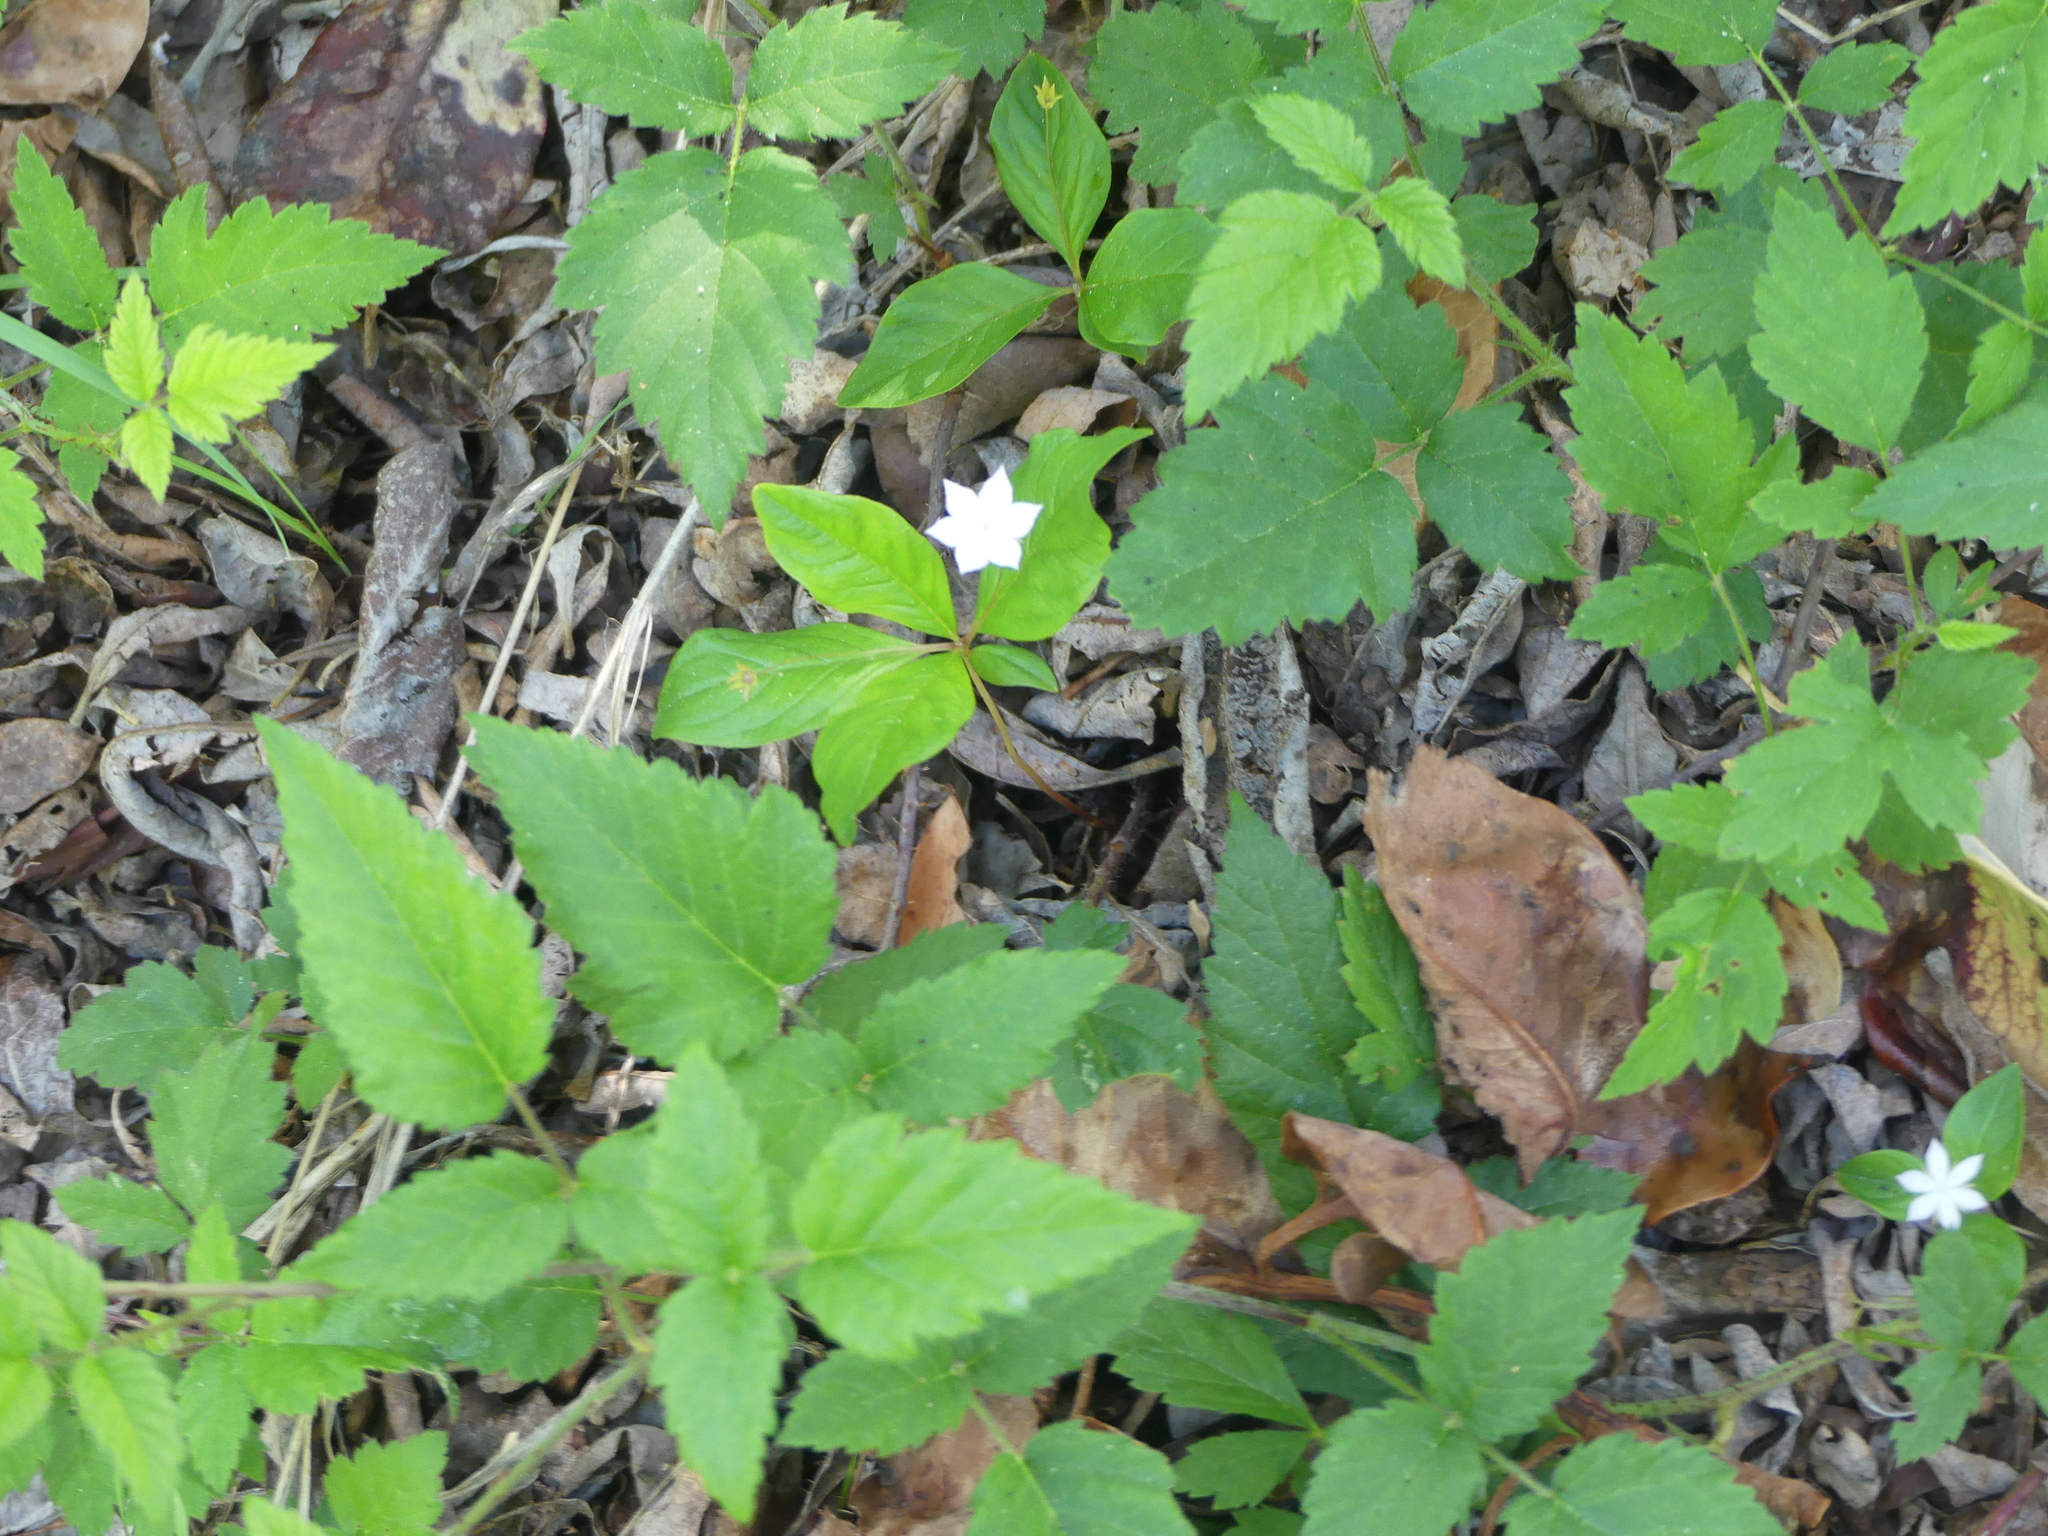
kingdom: Plantae
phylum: Tracheophyta
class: Magnoliopsida
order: Ericales
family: Primulaceae
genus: Lysimachia
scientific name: Lysimachia latifolia
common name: Pacific starflower
